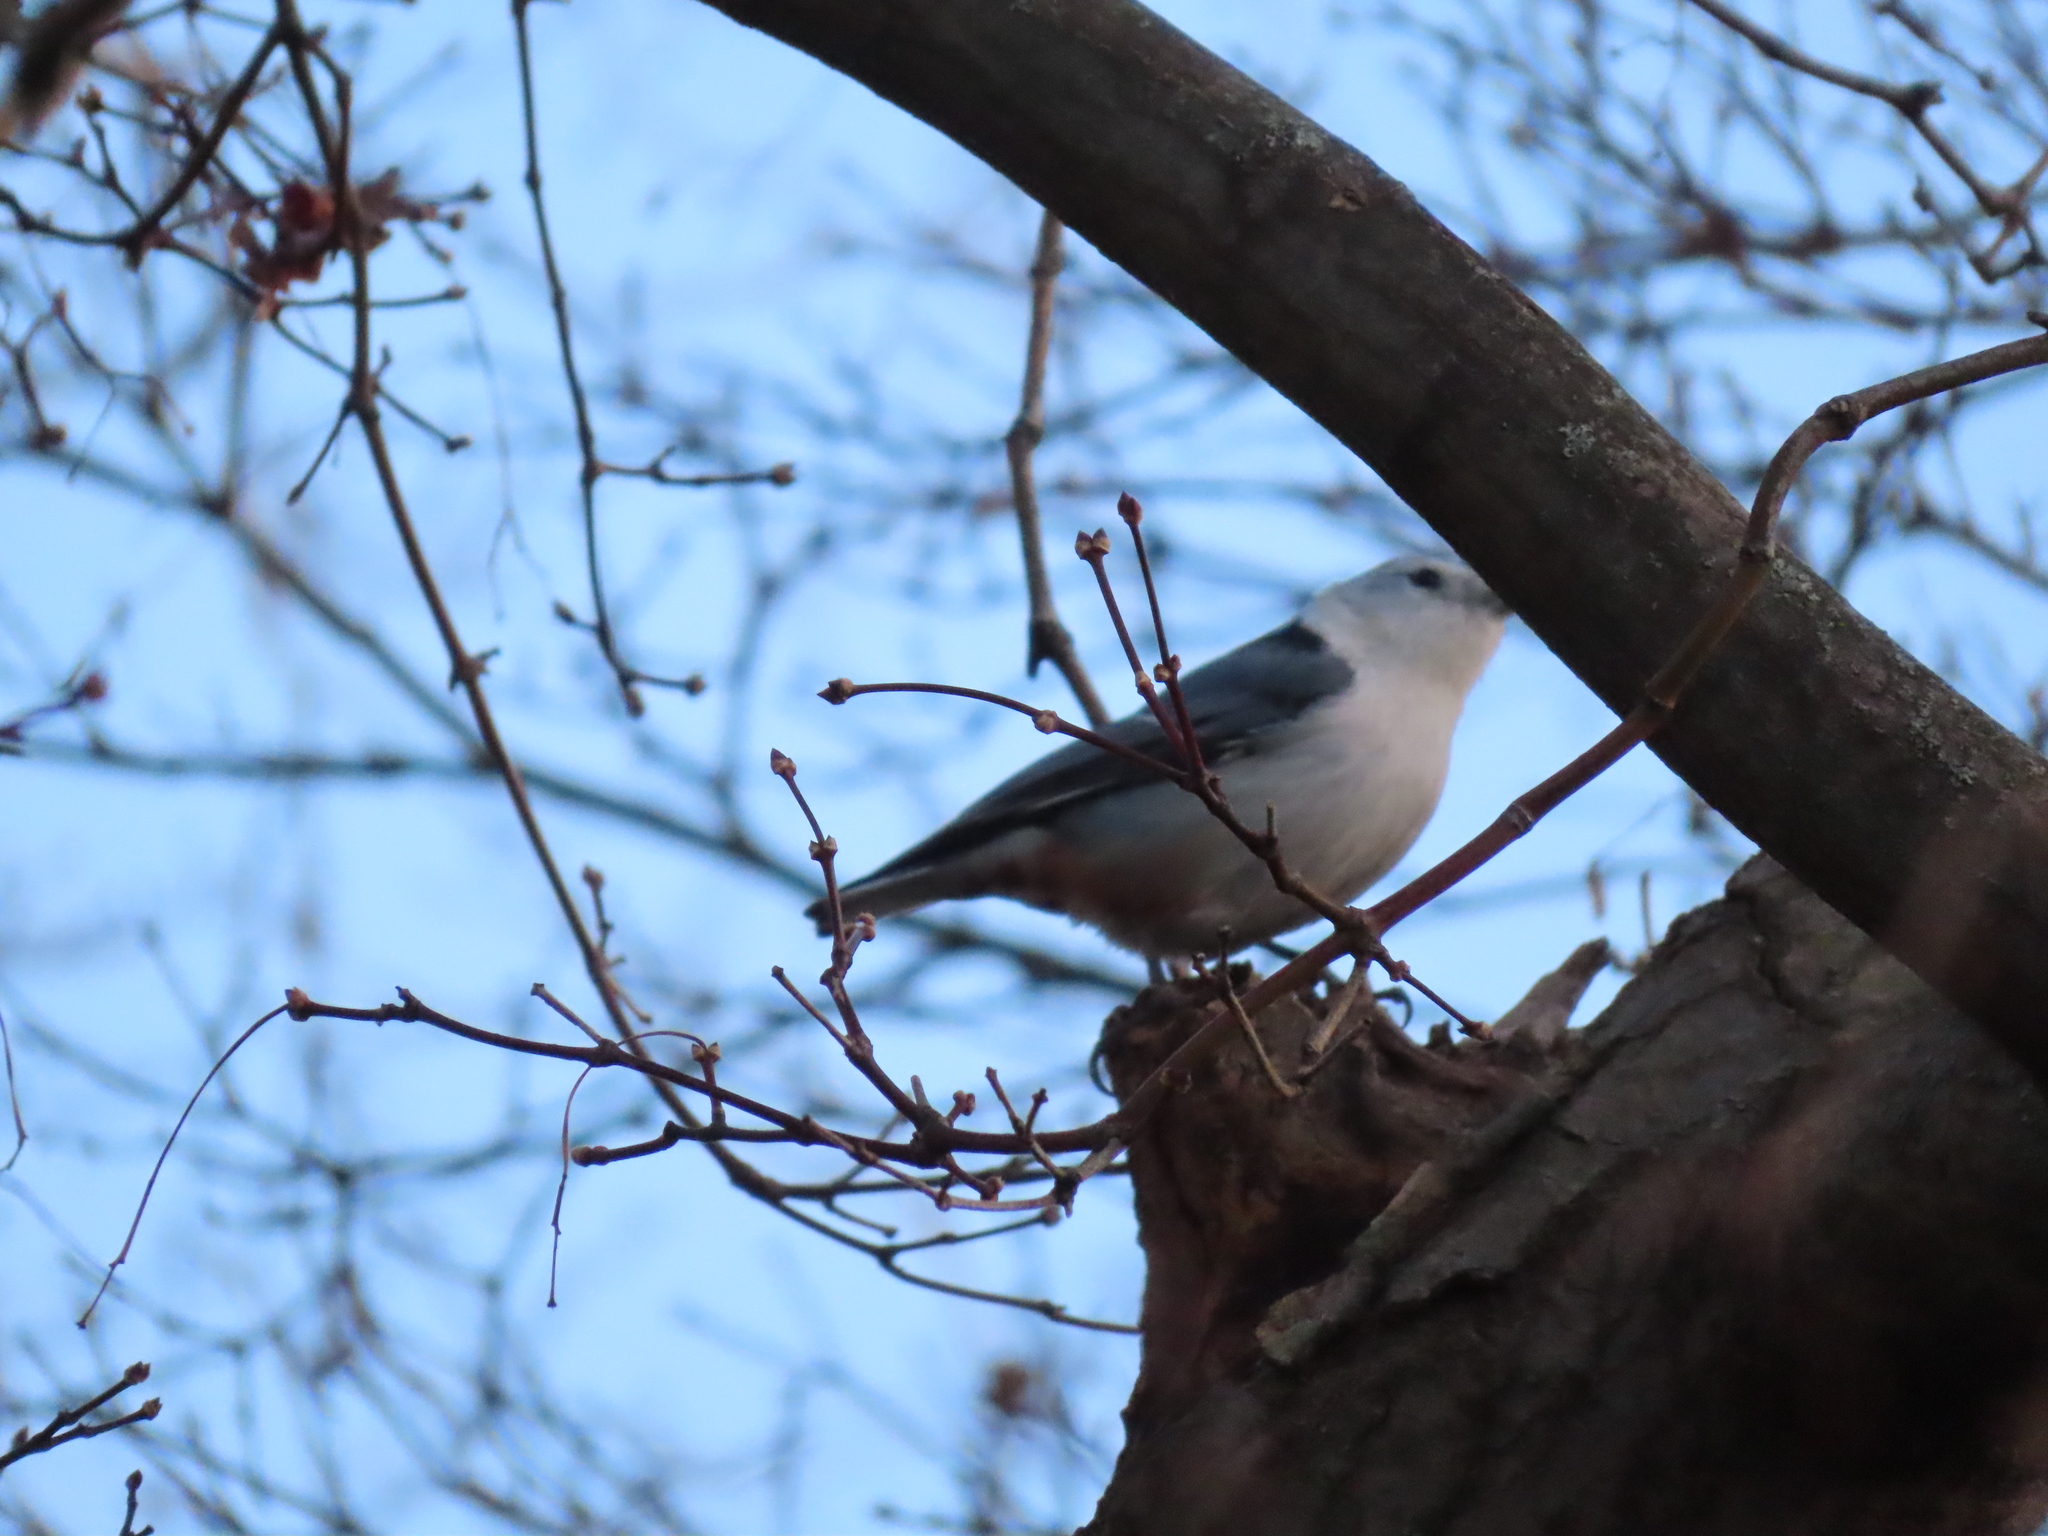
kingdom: Animalia
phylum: Chordata
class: Aves
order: Passeriformes
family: Sittidae
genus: Sitta
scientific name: Sitta carolinensis
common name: White-breasted nuthatch
